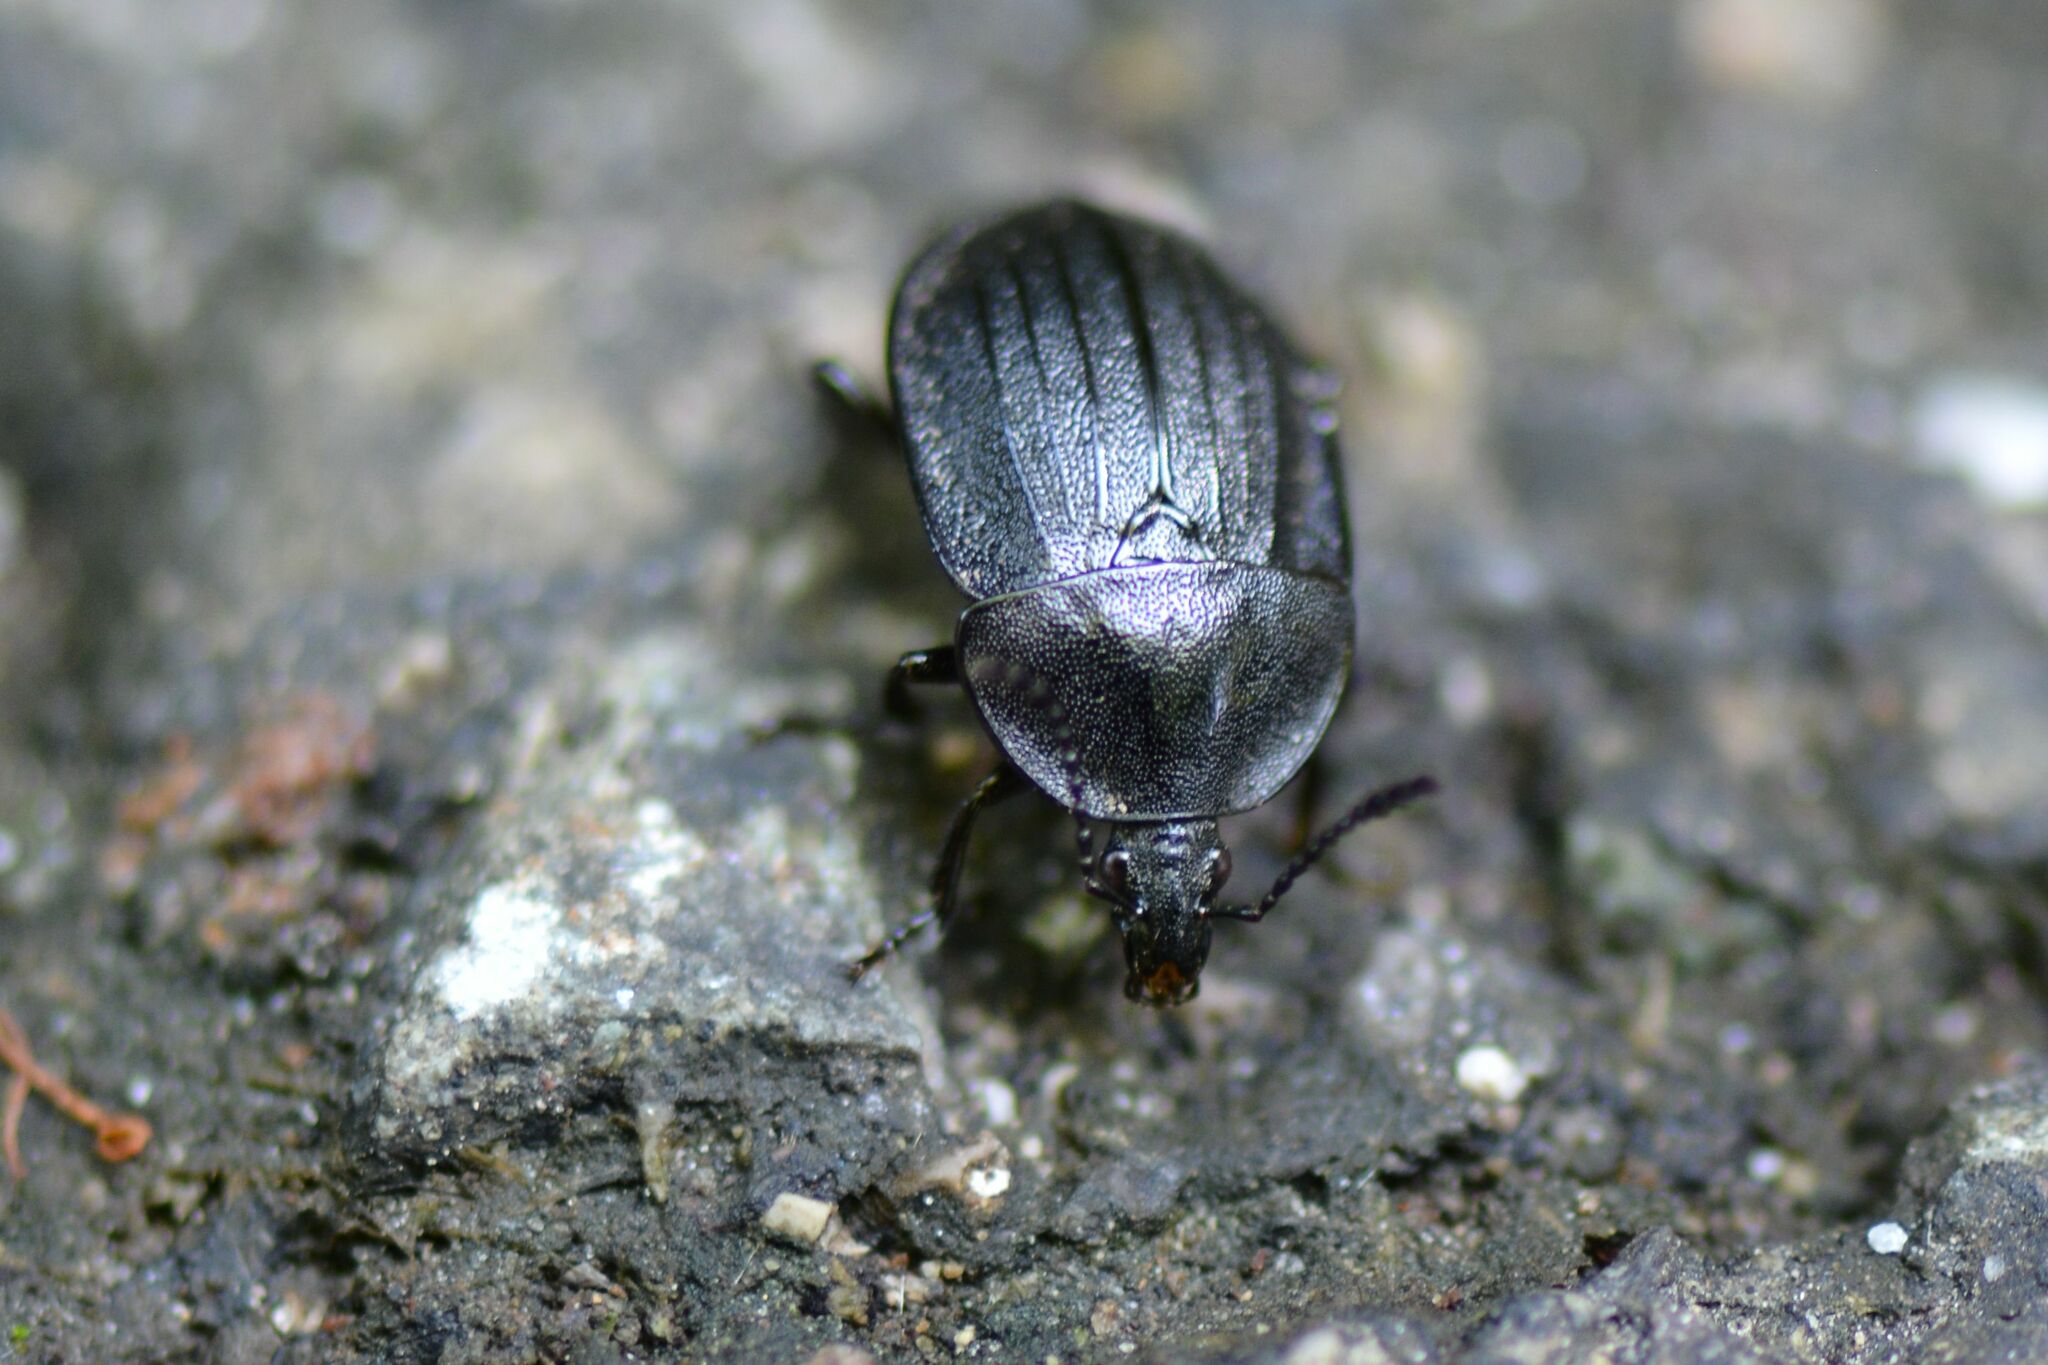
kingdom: Animalia
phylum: Arthropoda
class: Insecta
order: Coleoptera
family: Staphylinidae
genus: Silpha
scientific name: Silpha atrata
